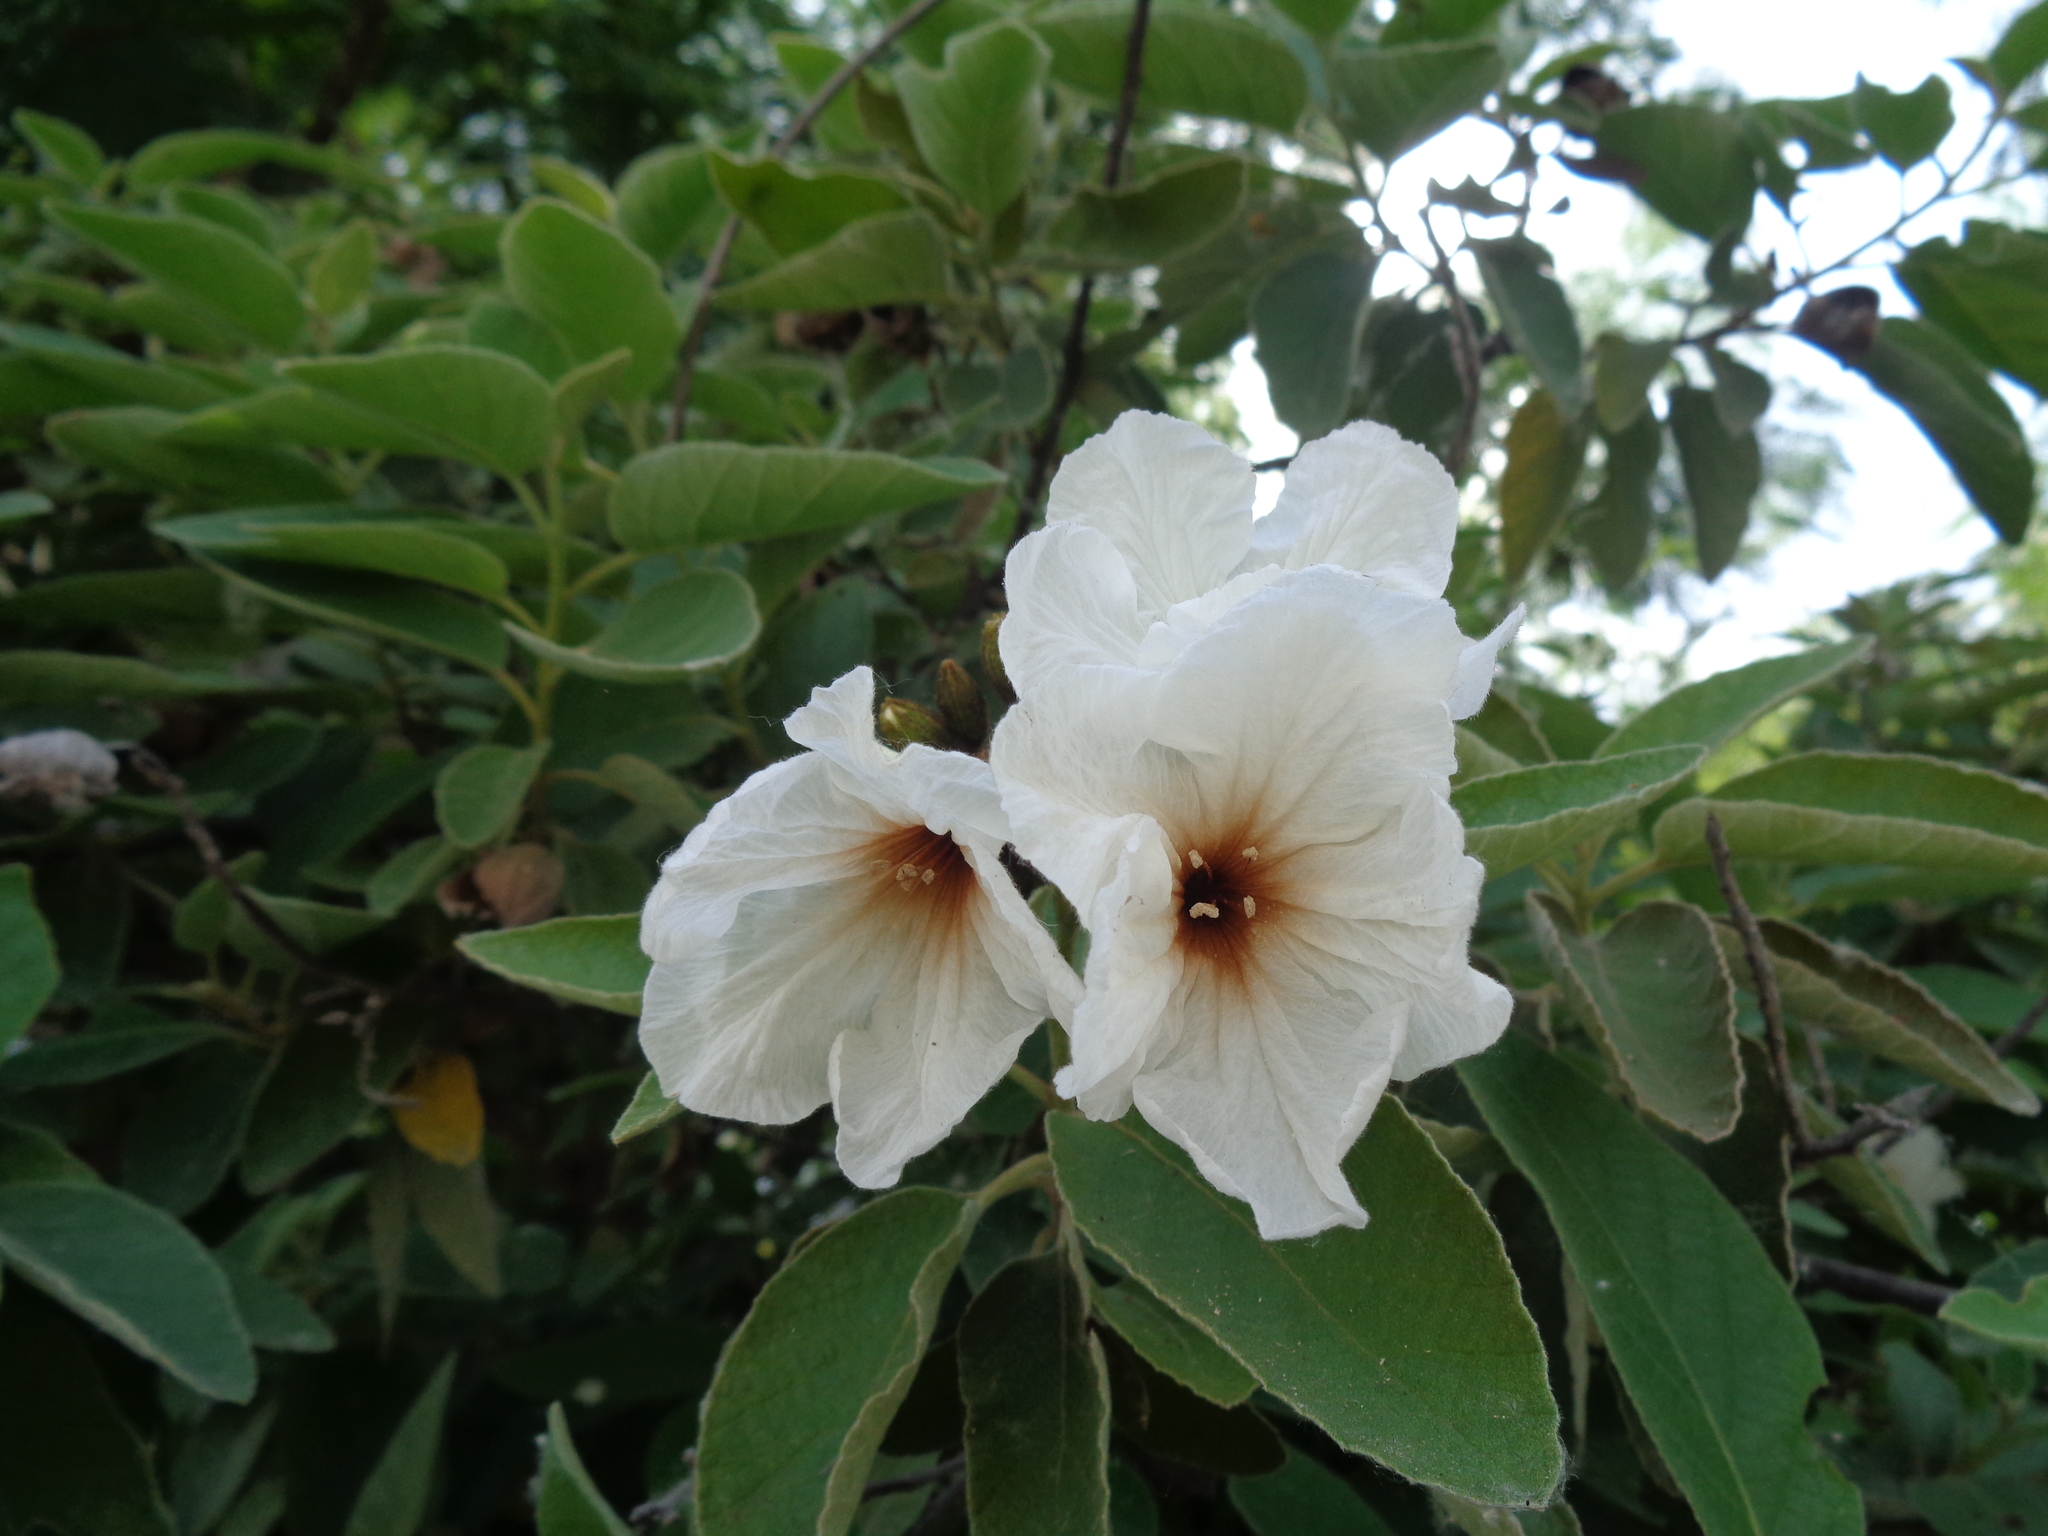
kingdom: Plantae
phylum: Tracheophyta
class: Magnoliopsida
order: Boraginales
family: Cordiaceae
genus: Cordia
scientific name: Cordia boissieri
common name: Mexican-olive
